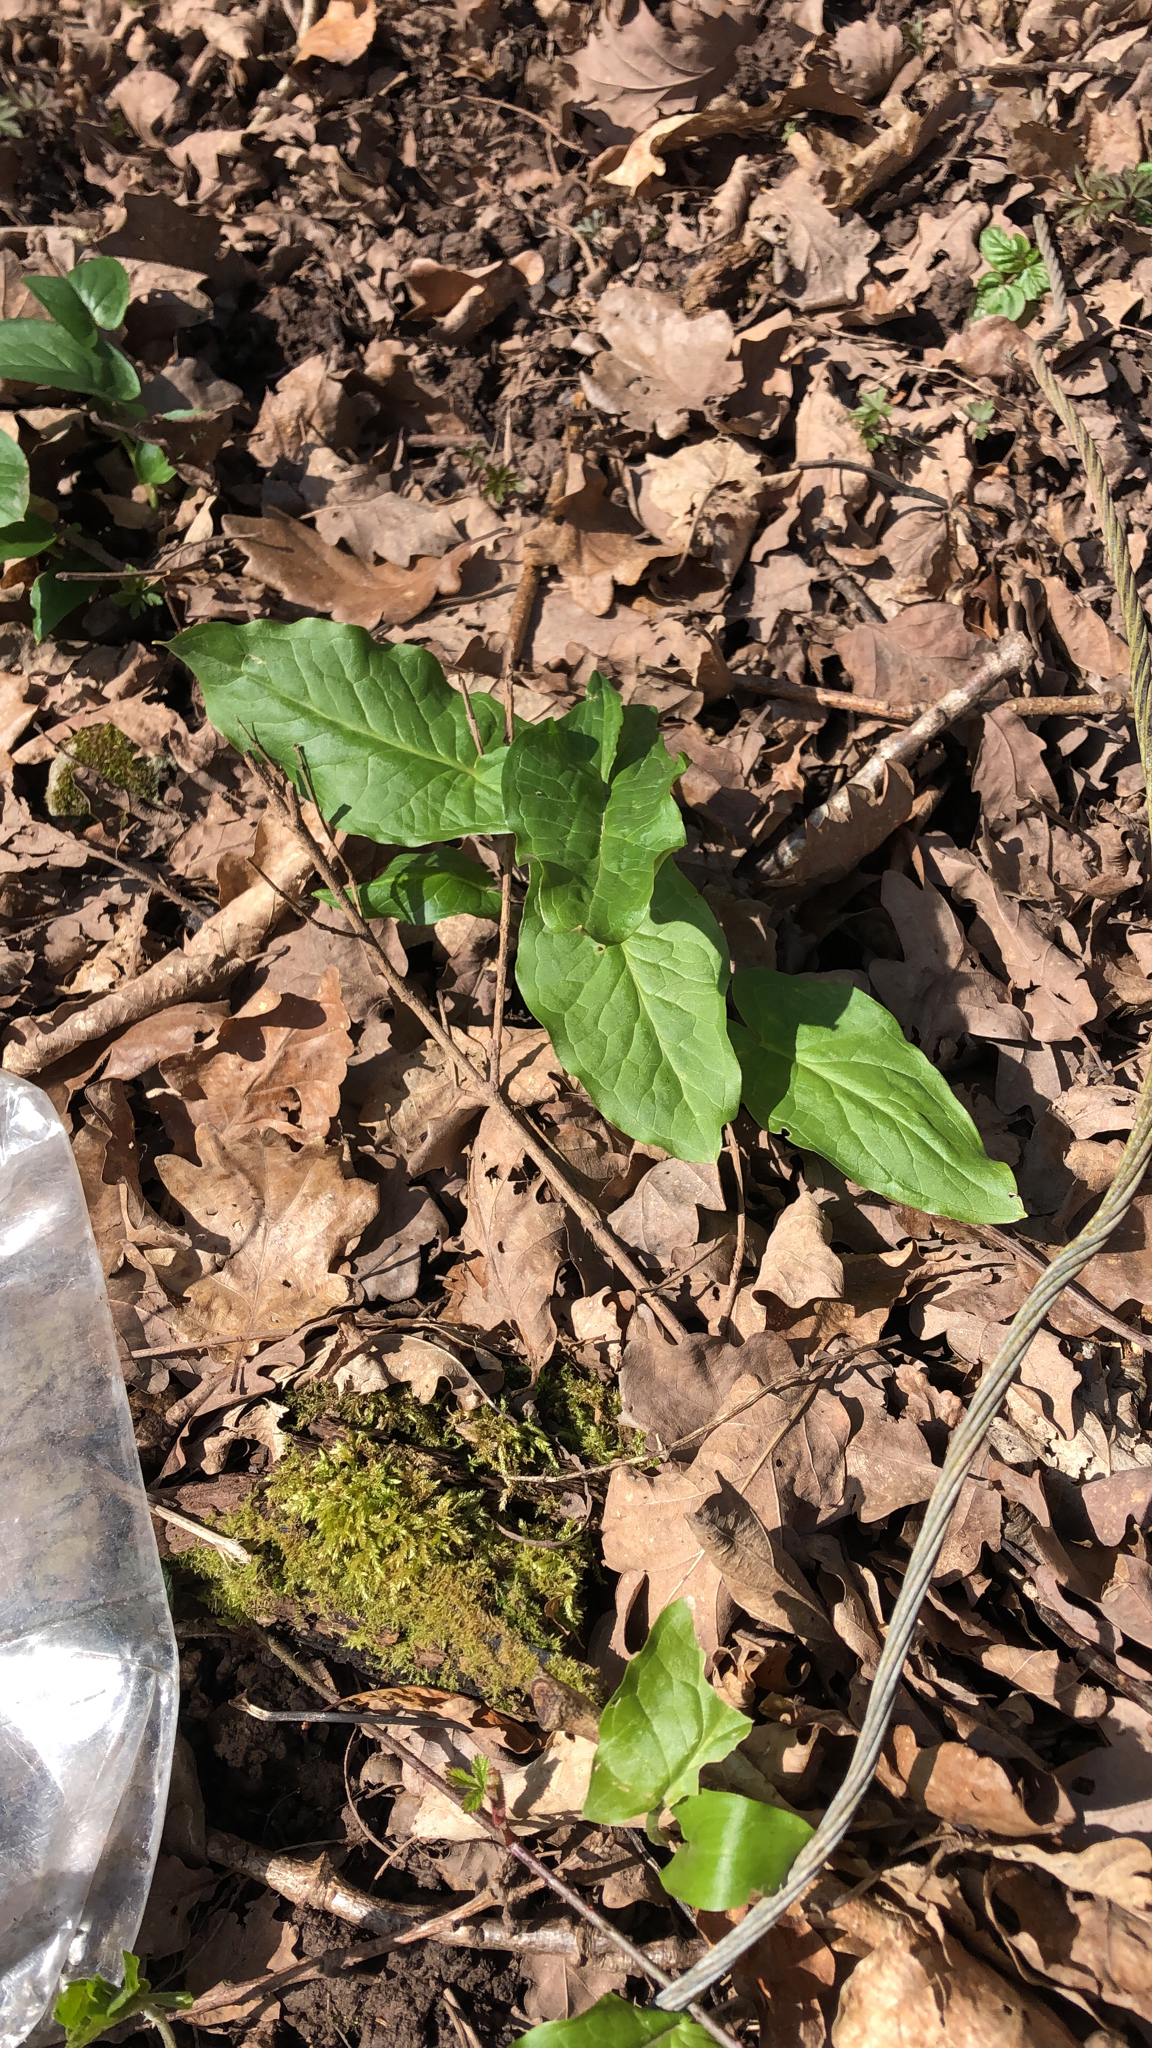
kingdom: Plantae
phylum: Tracheophyta
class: Liliopsida
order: Alismatales
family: Araceae
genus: Arum
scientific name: Arum maculatum
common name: Lords-and-ladies
